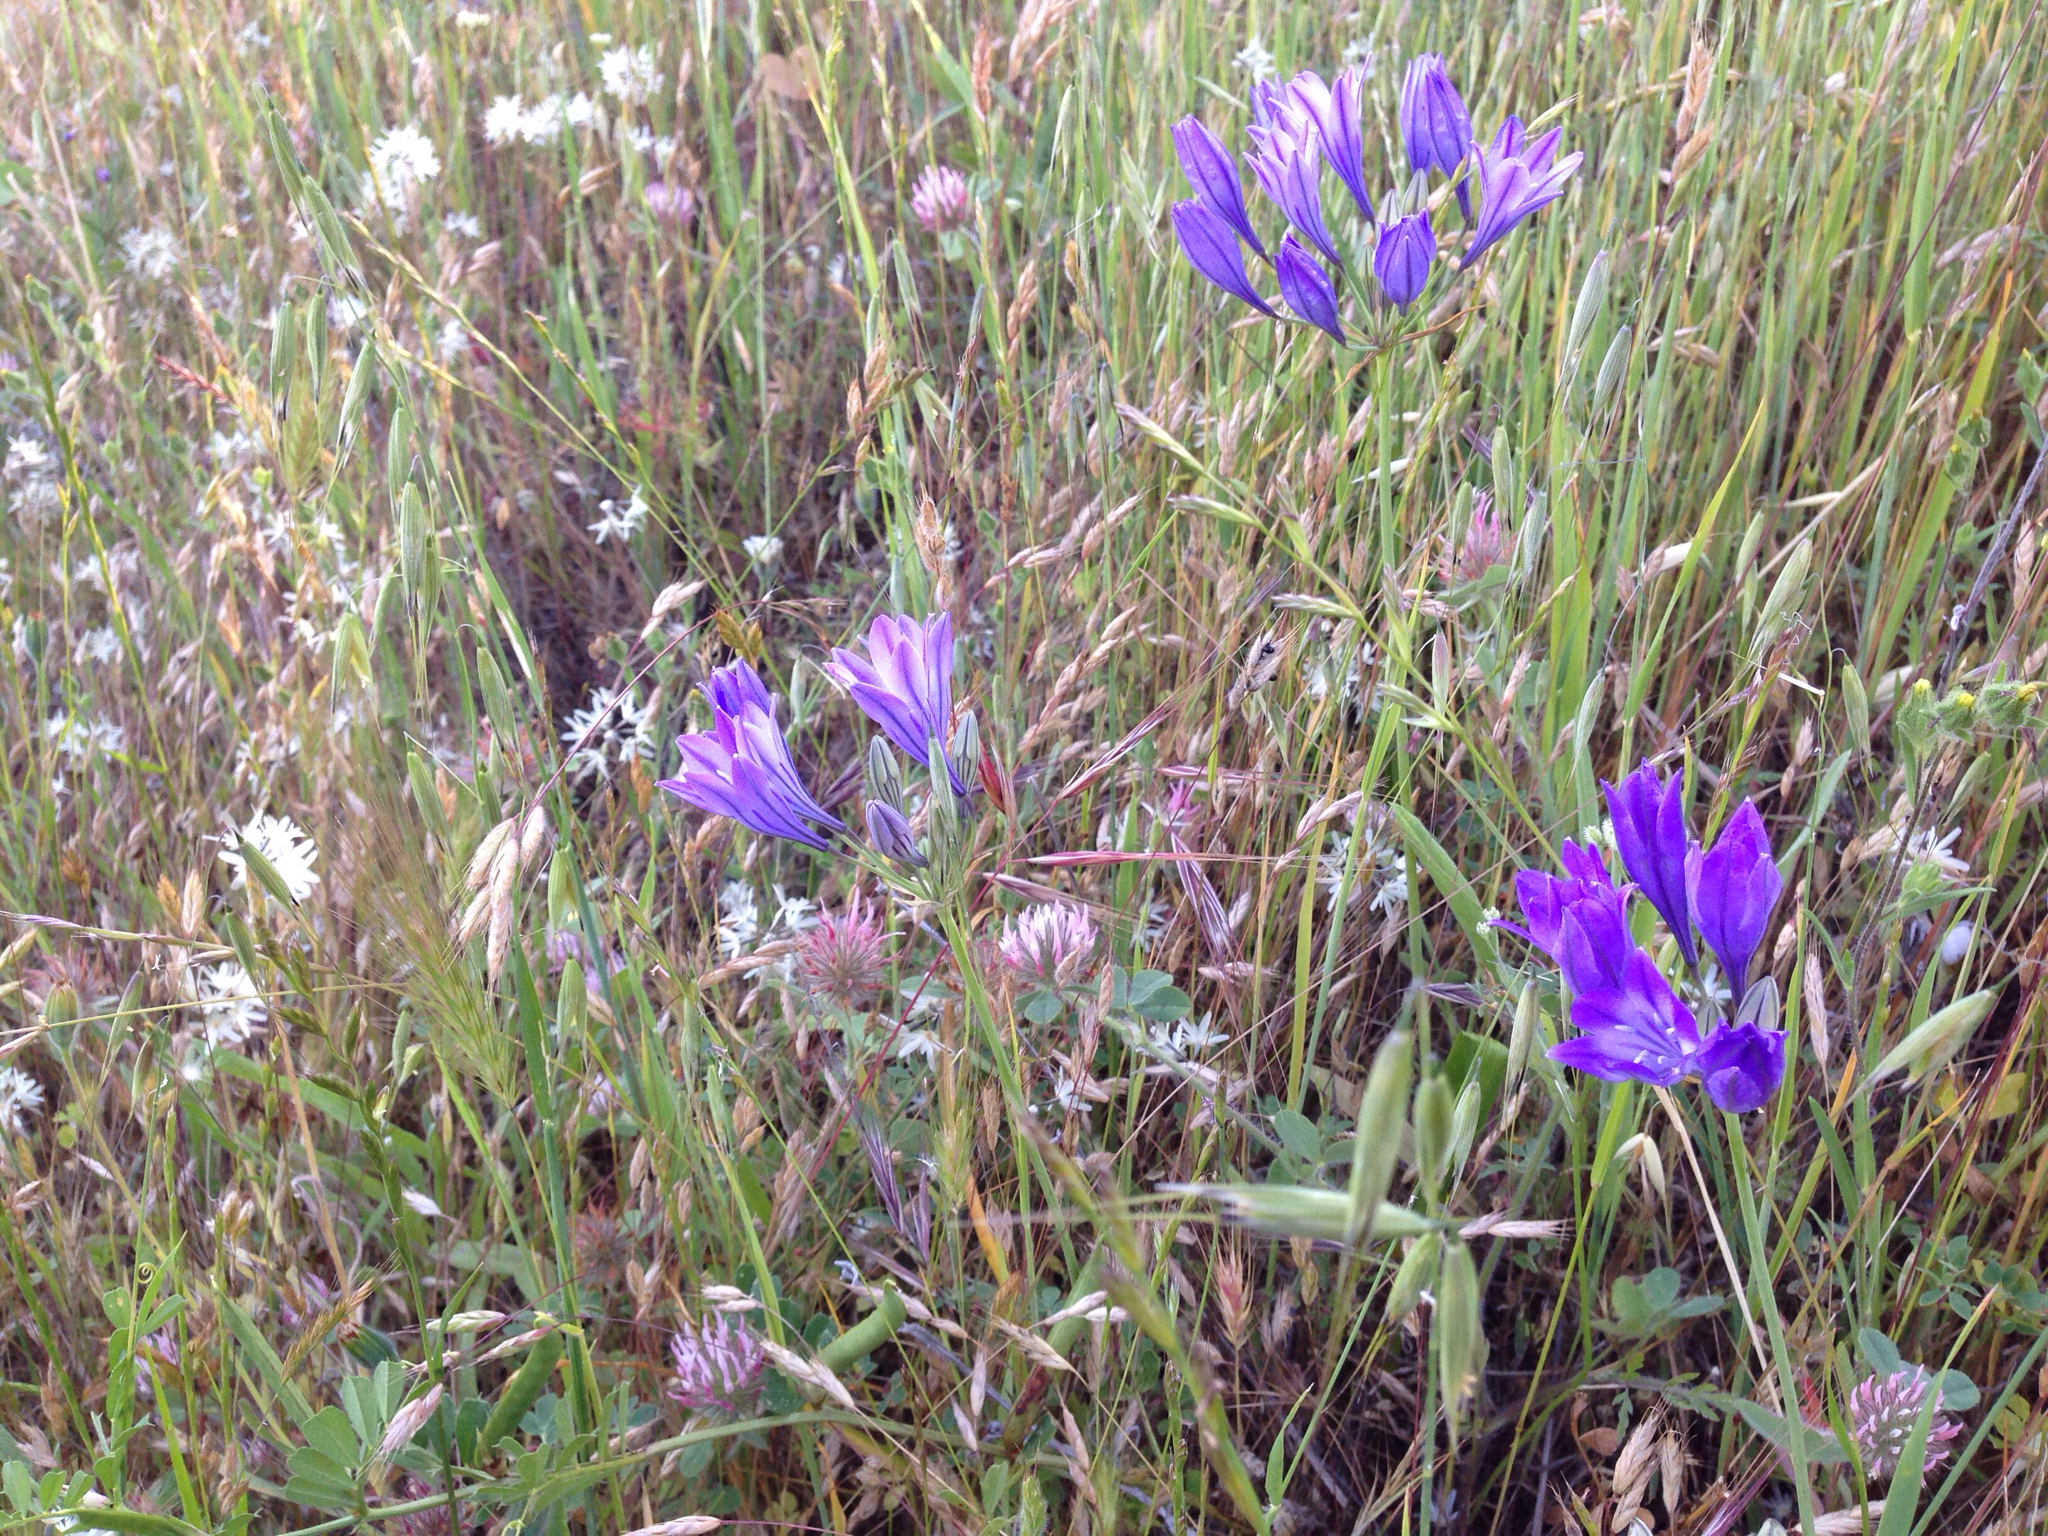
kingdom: Plantae
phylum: Tracheophyta
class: Liliopsida
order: Asparagales
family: Asparagaceae
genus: Triteleia
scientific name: Triteleia laxa
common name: Triplet-lily
